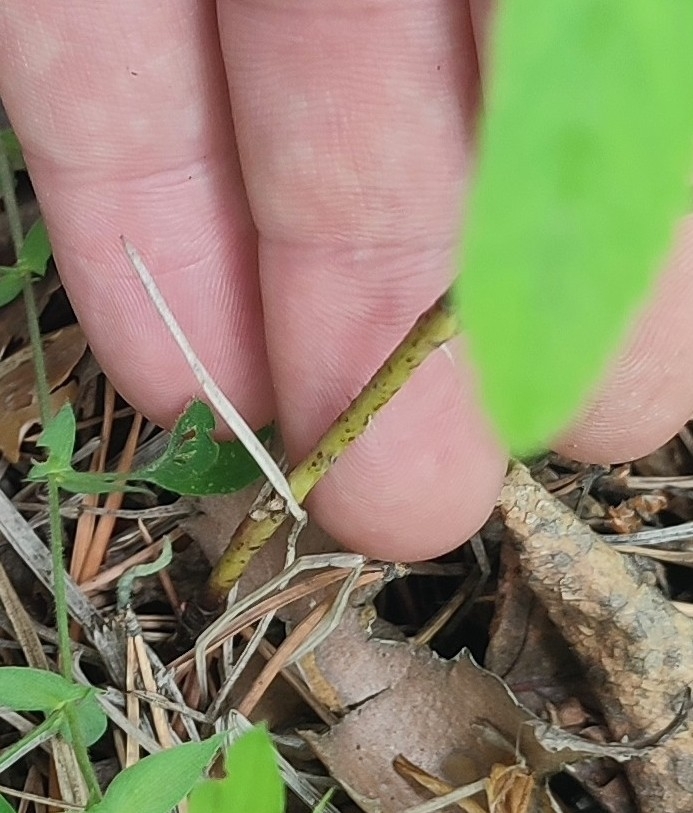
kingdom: Plantae
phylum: Tracheophyta
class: Magnoliopsida
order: Rosales
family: Rosaceae
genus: Rosa
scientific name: Rosa majalis
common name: Cinnamon rose
